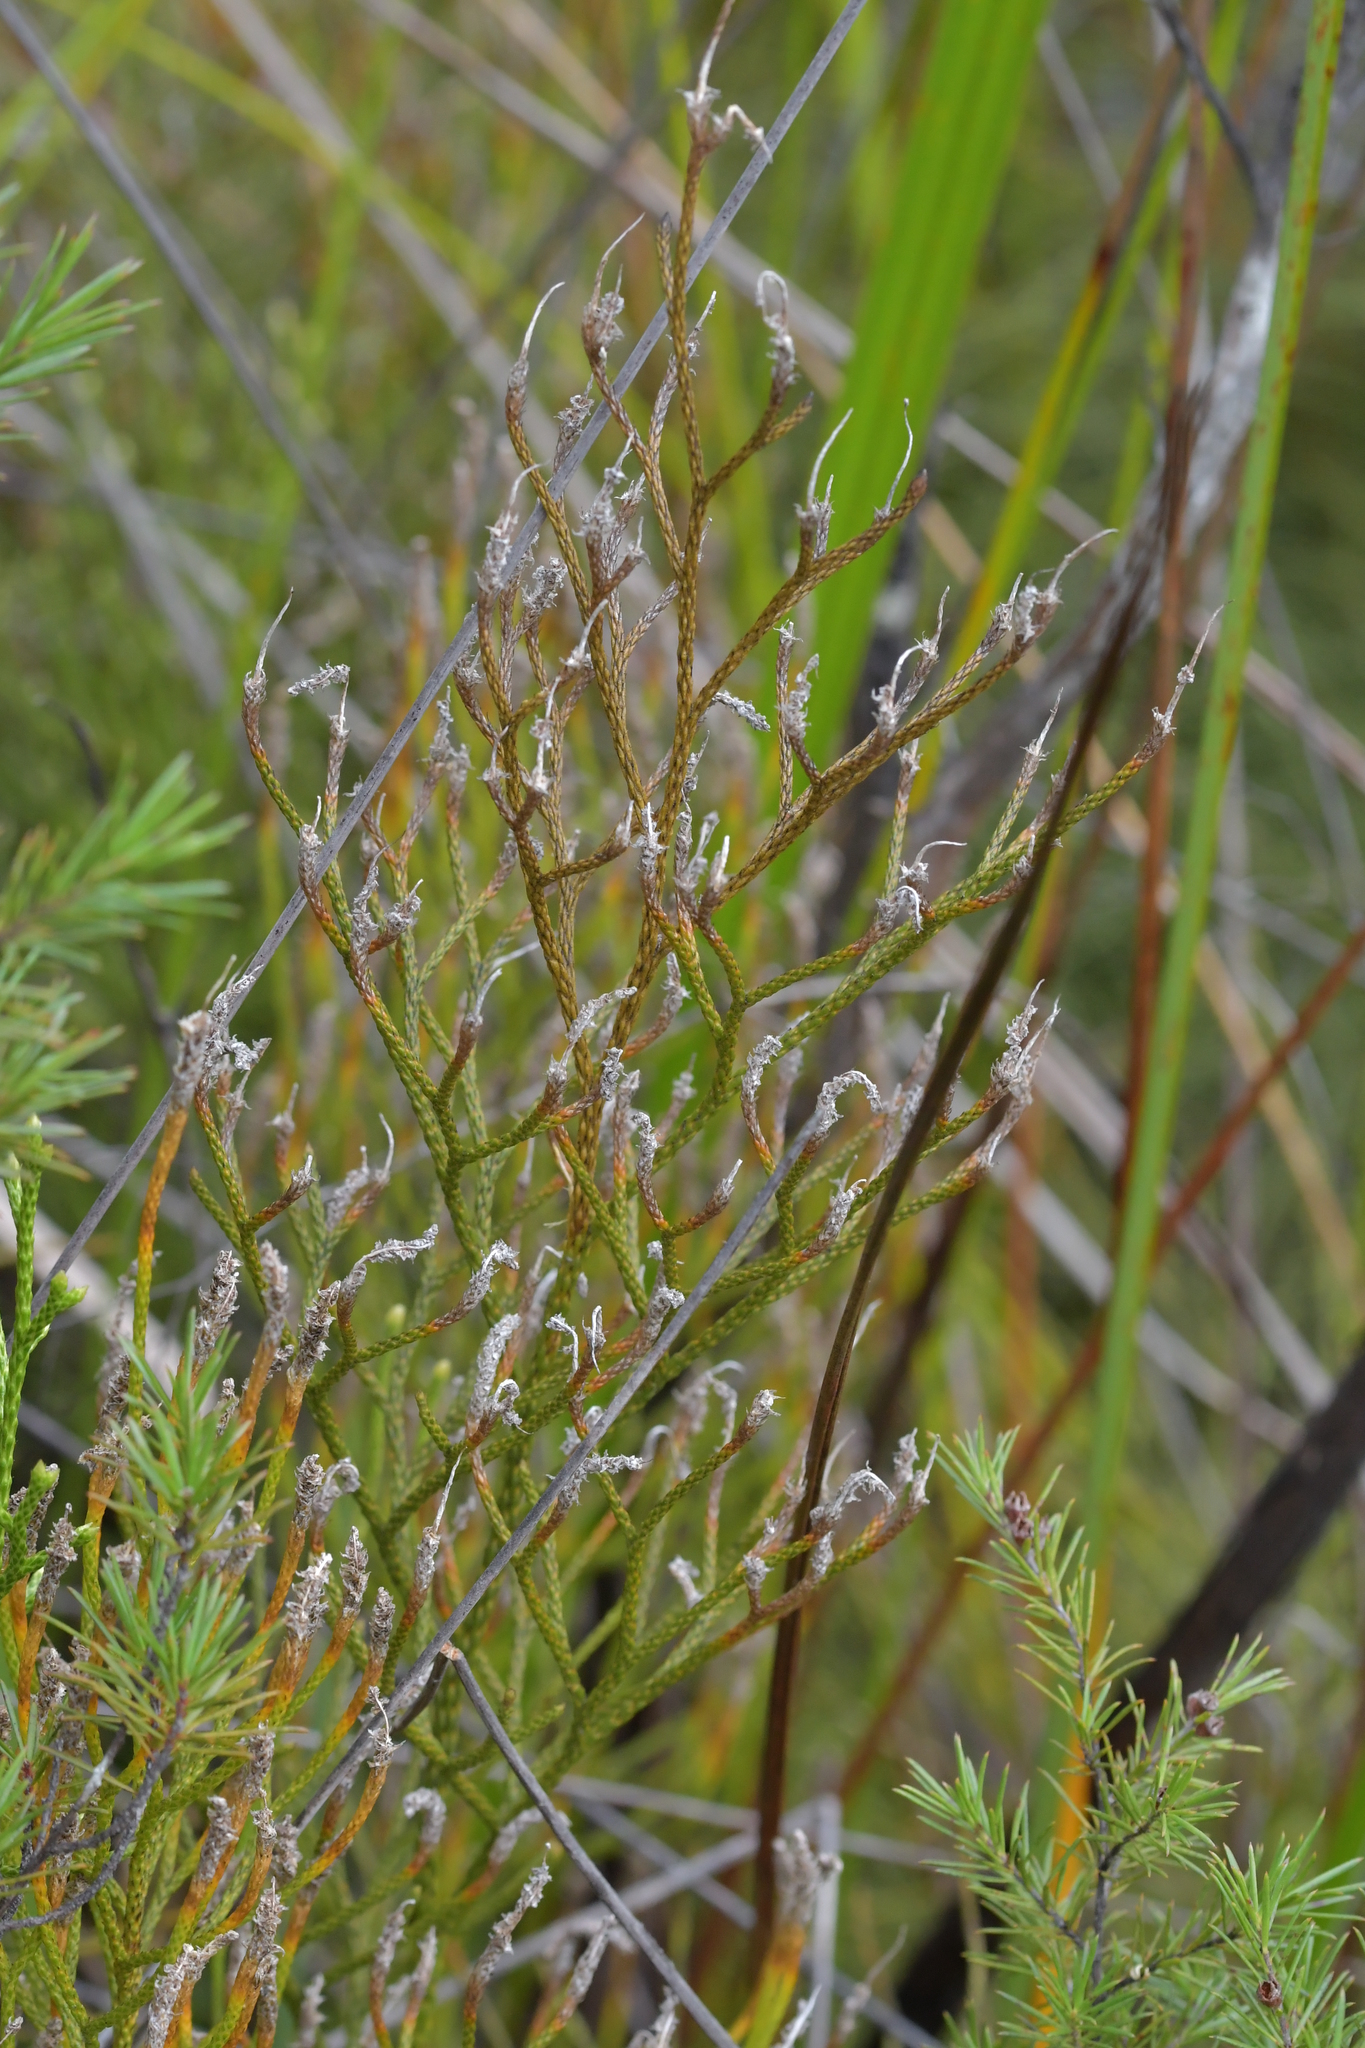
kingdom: Plantae
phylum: Tracheophyta
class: Lycopodiopsida
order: Lycopodiales
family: Lycopodiaceae
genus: Pseudolycopodium
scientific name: Pseudolycopodium densum
